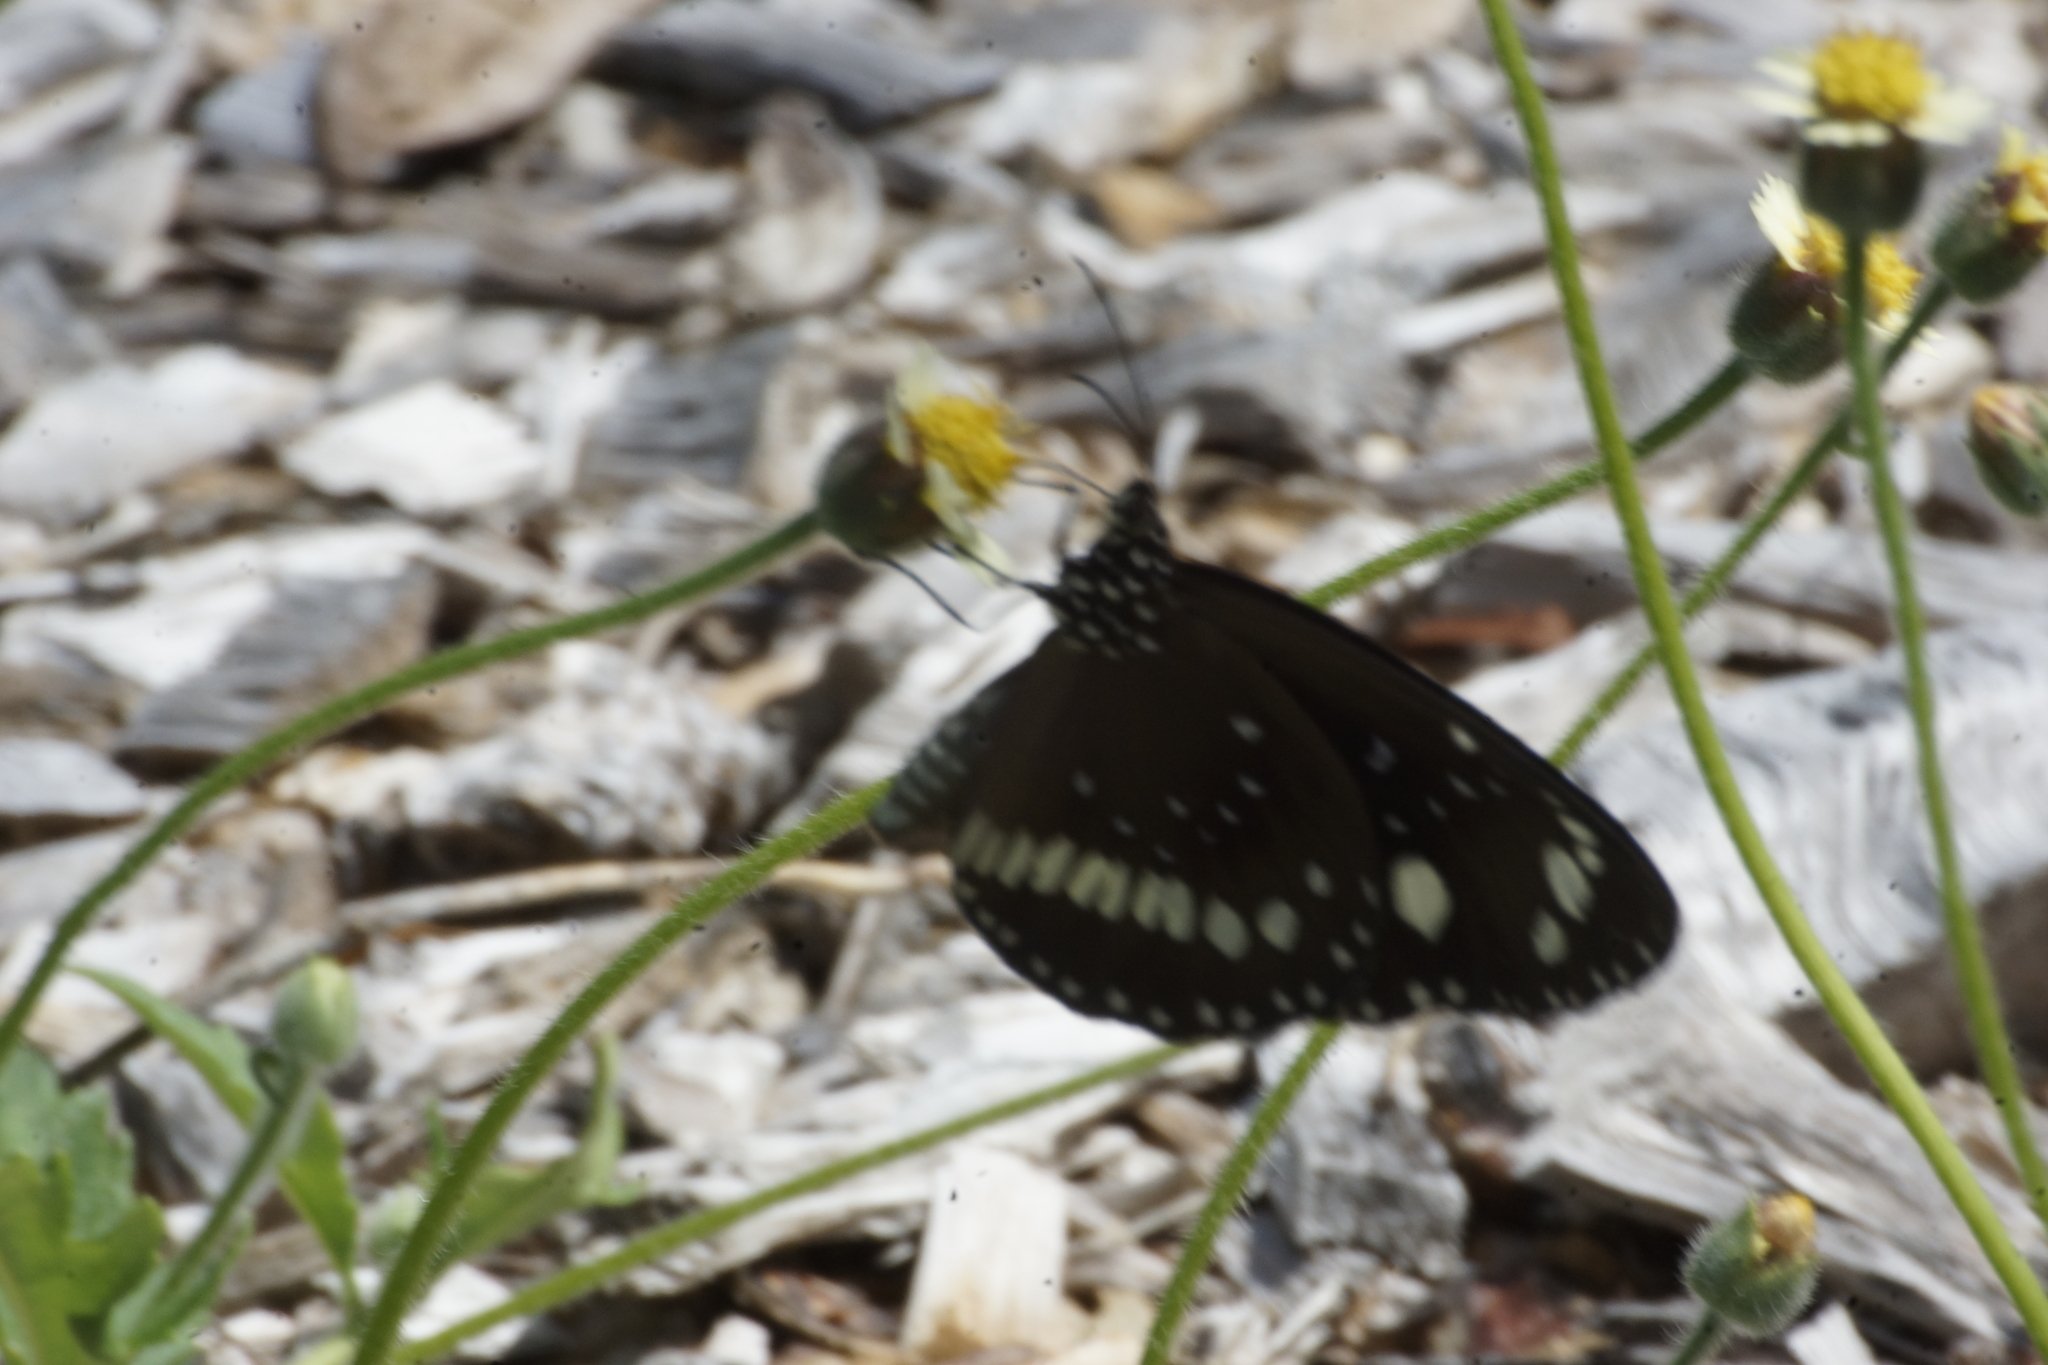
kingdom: Animalia
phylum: Arthropoda
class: Insecta
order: Lepidoptera
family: Nymphalidae
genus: Euploea
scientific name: Euploea core
